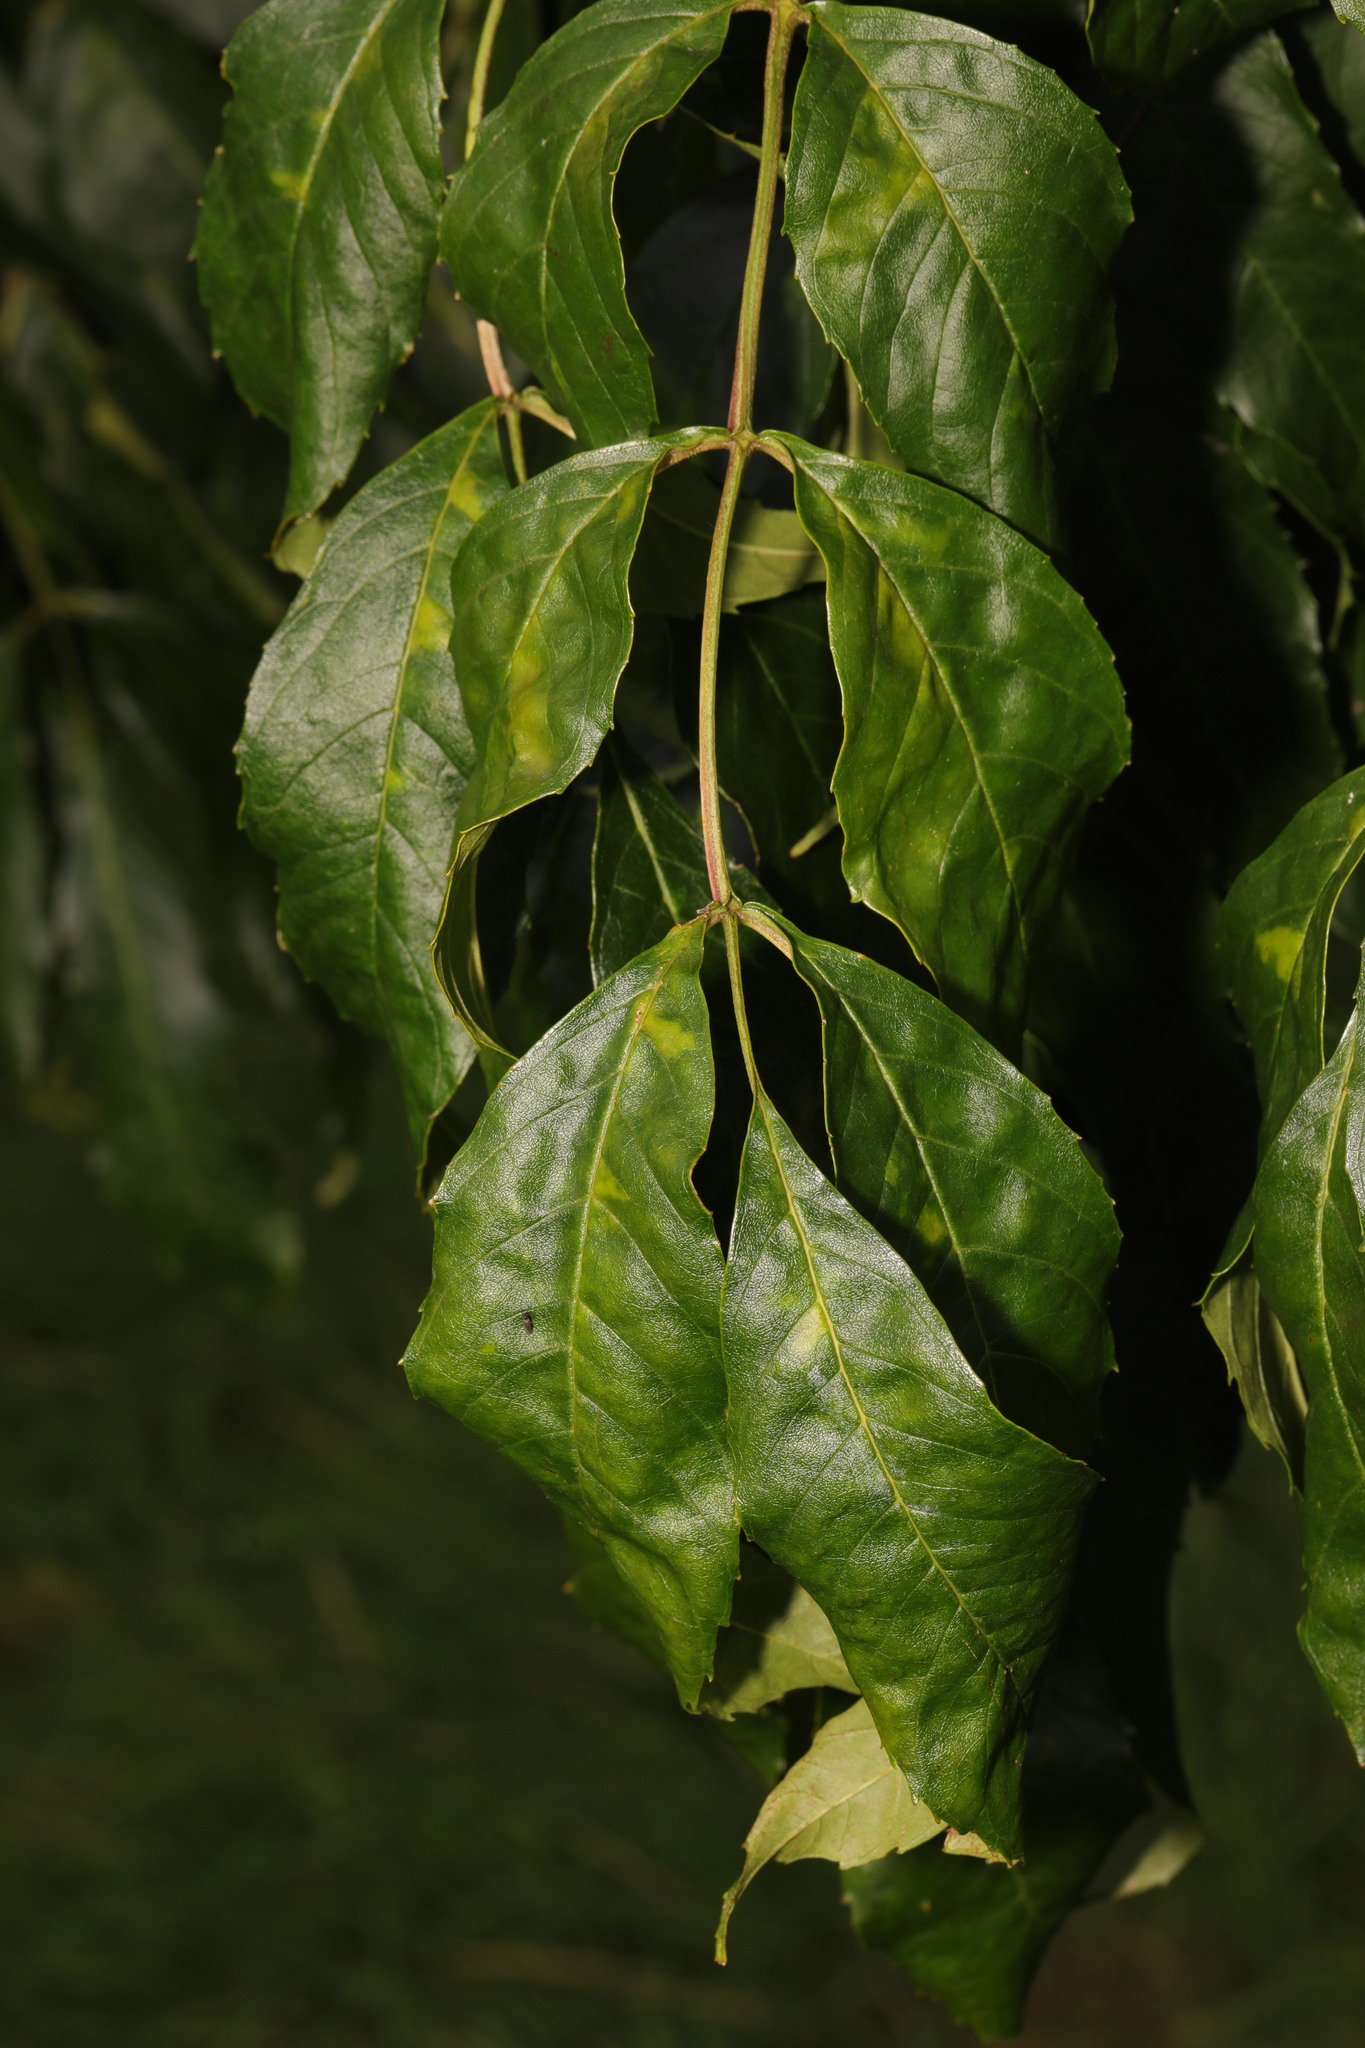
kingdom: Plantae
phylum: Tracheophyta
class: Magnoliopsida
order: Lamiales
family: Oleaceae
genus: Fraxinus
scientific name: Fraxinus excelsior
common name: European ash
